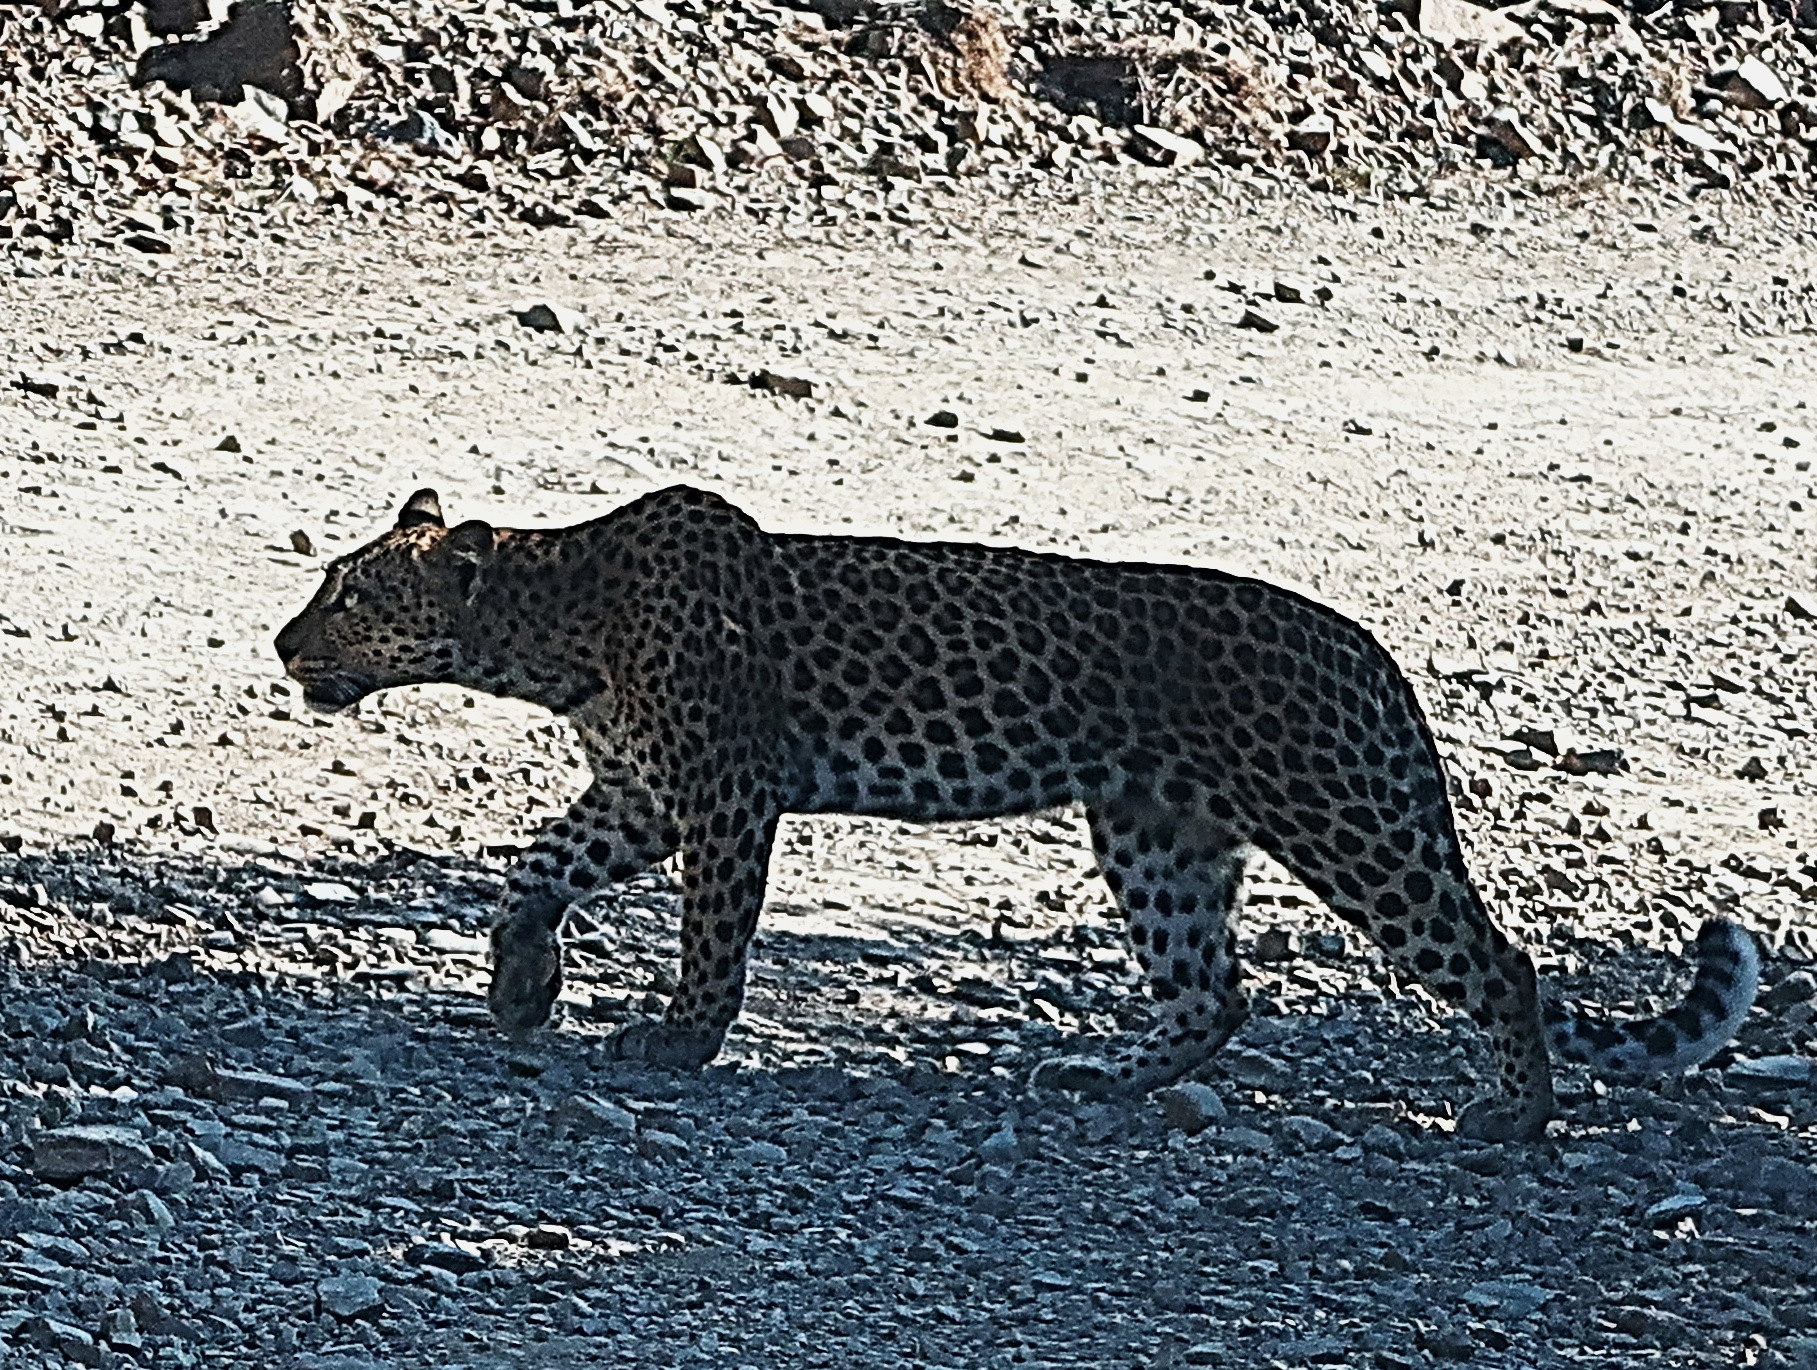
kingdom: Animalia
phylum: Chordata
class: Mammalia
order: Carnivora
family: Felidae
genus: Panthera
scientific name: Panthera pardus
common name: Leopard
